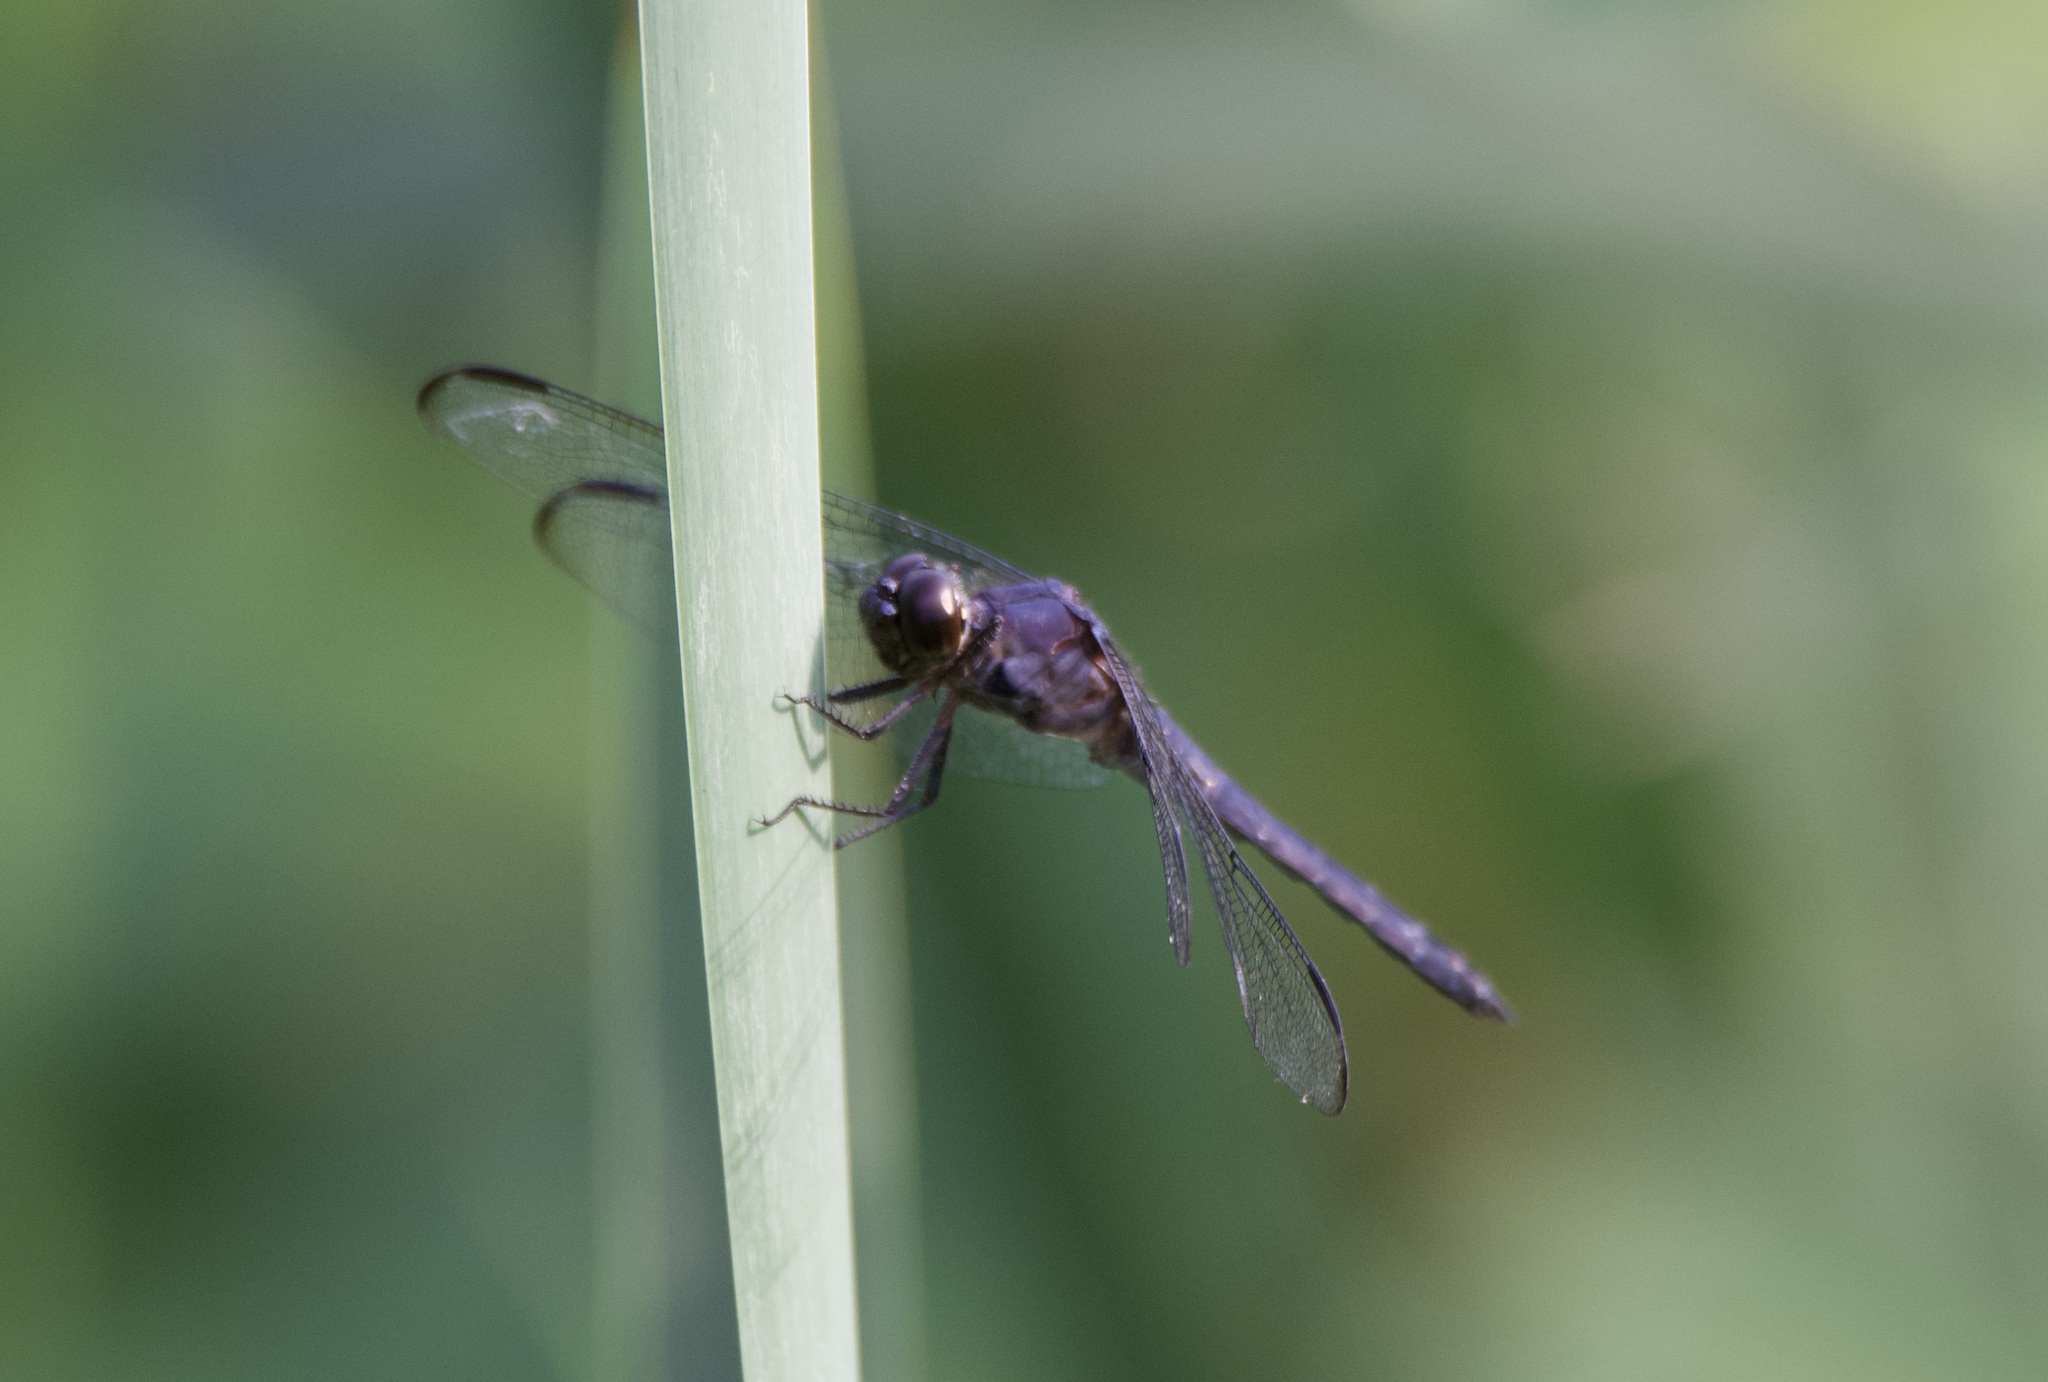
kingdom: Animalia
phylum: Arthropoda
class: Insecta
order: Odonata
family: Libellulidae
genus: Libellula
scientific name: Libellula incesta
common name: Slaty skimmer
